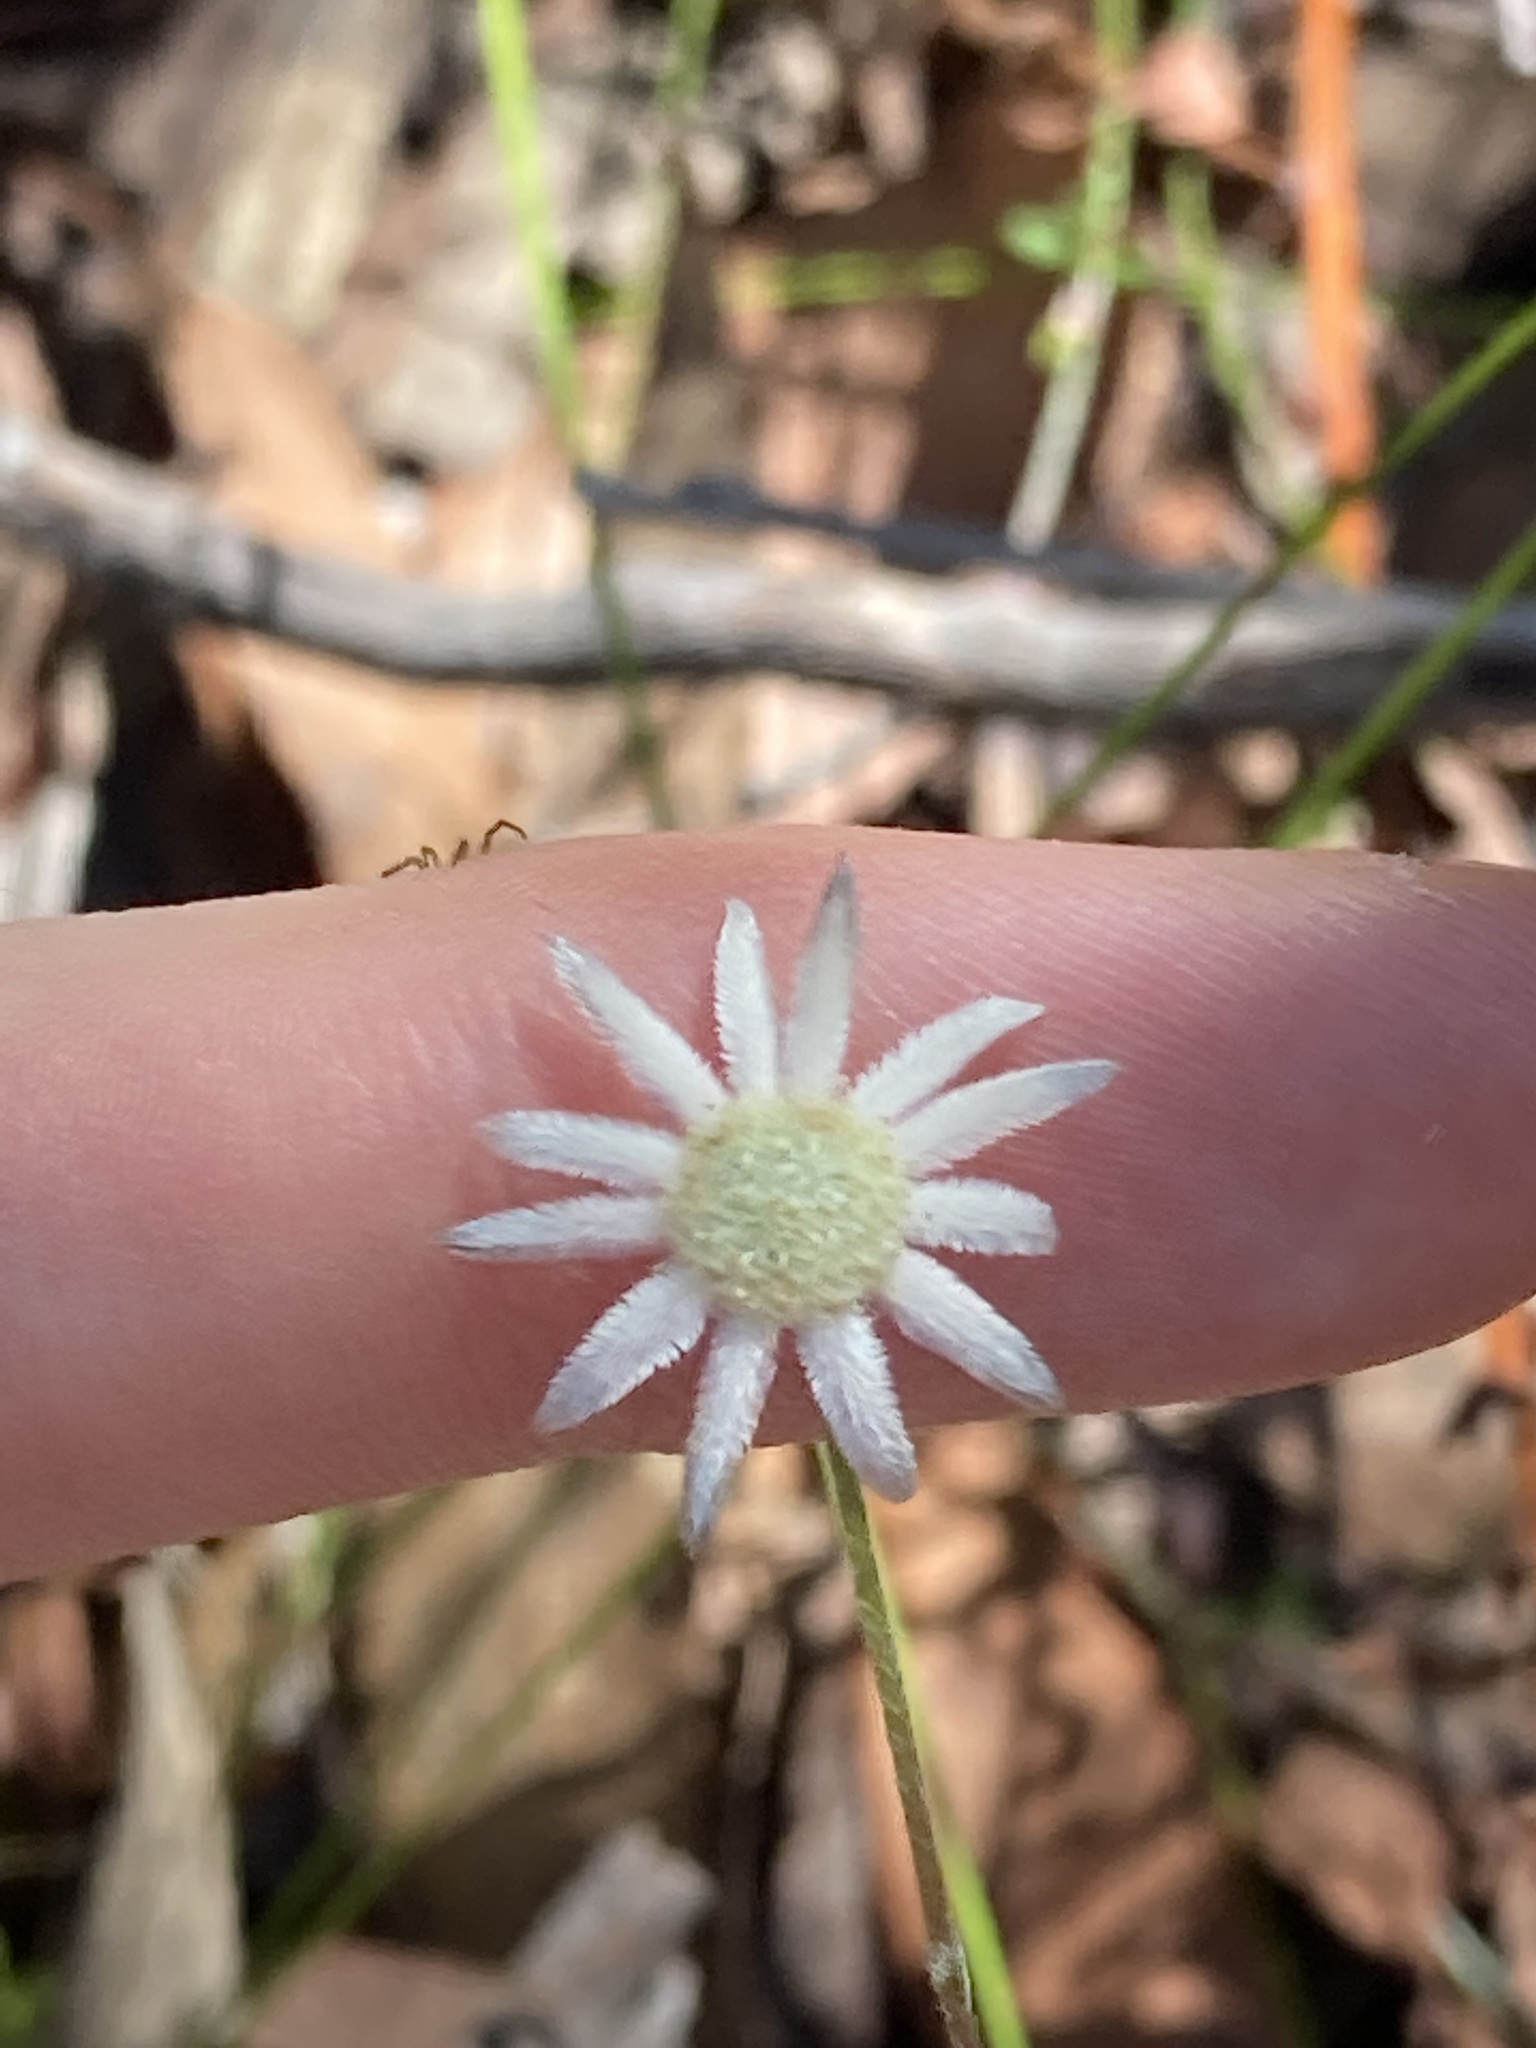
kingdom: Plantae
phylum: Tracheophyta
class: Magnoliopsida
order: Apiales
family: Apiaceae
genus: Actinotus
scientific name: Actinotus minor
